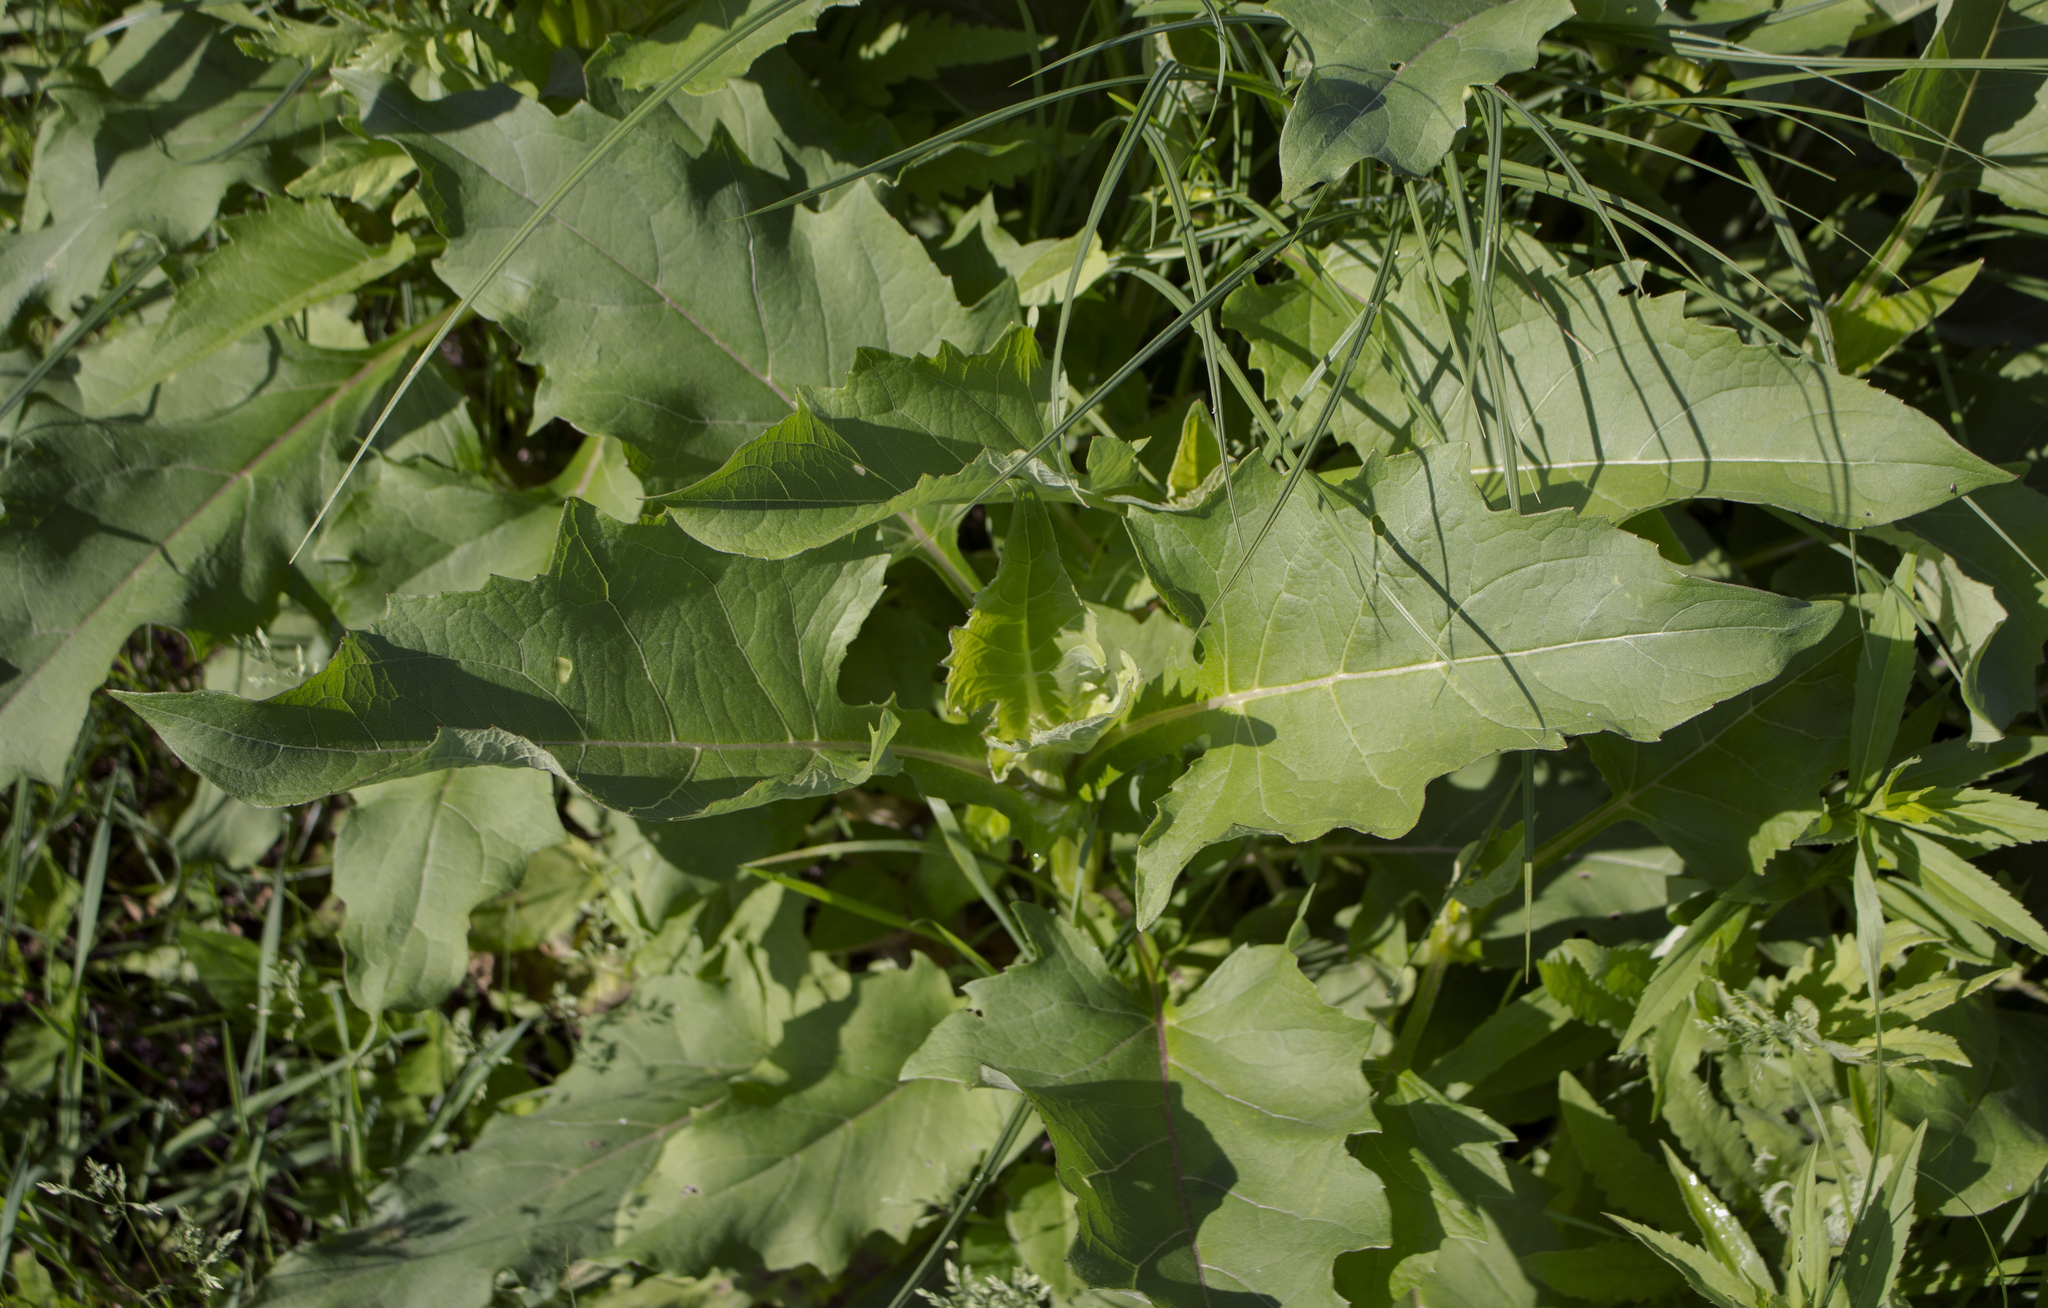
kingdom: Plantae
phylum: Tracheophyta
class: Magnoliopsida
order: Asterales
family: Asteraceae
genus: Silphium
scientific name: Silphium perfoliatum
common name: Cup-plant
